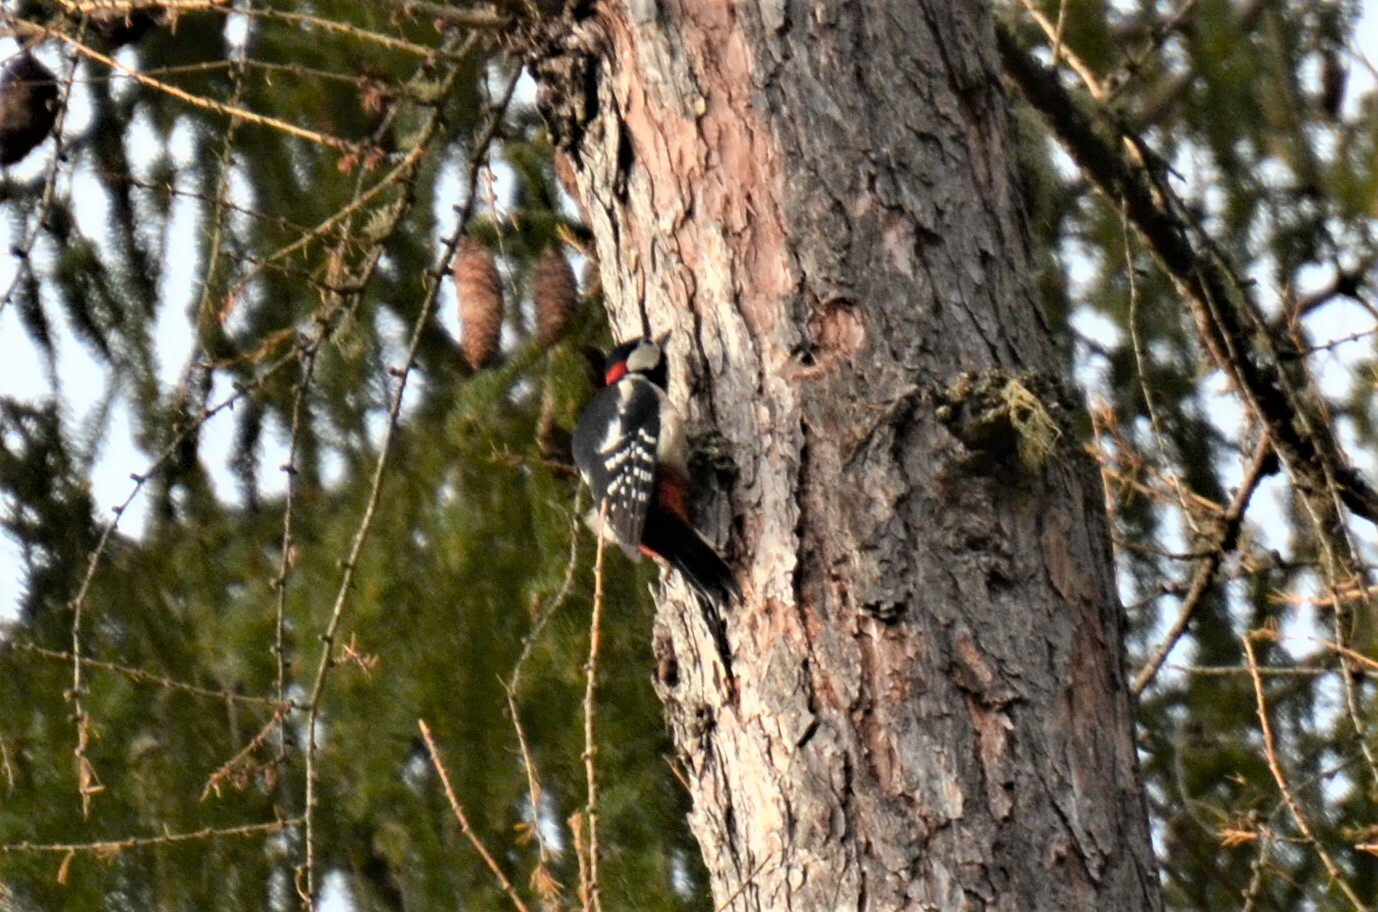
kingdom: Animalia
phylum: Chordata
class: Aves
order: Piciformes
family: Picidae
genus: Dendrocopos
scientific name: Dendrocopos major
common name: Great spotted woodpecker
